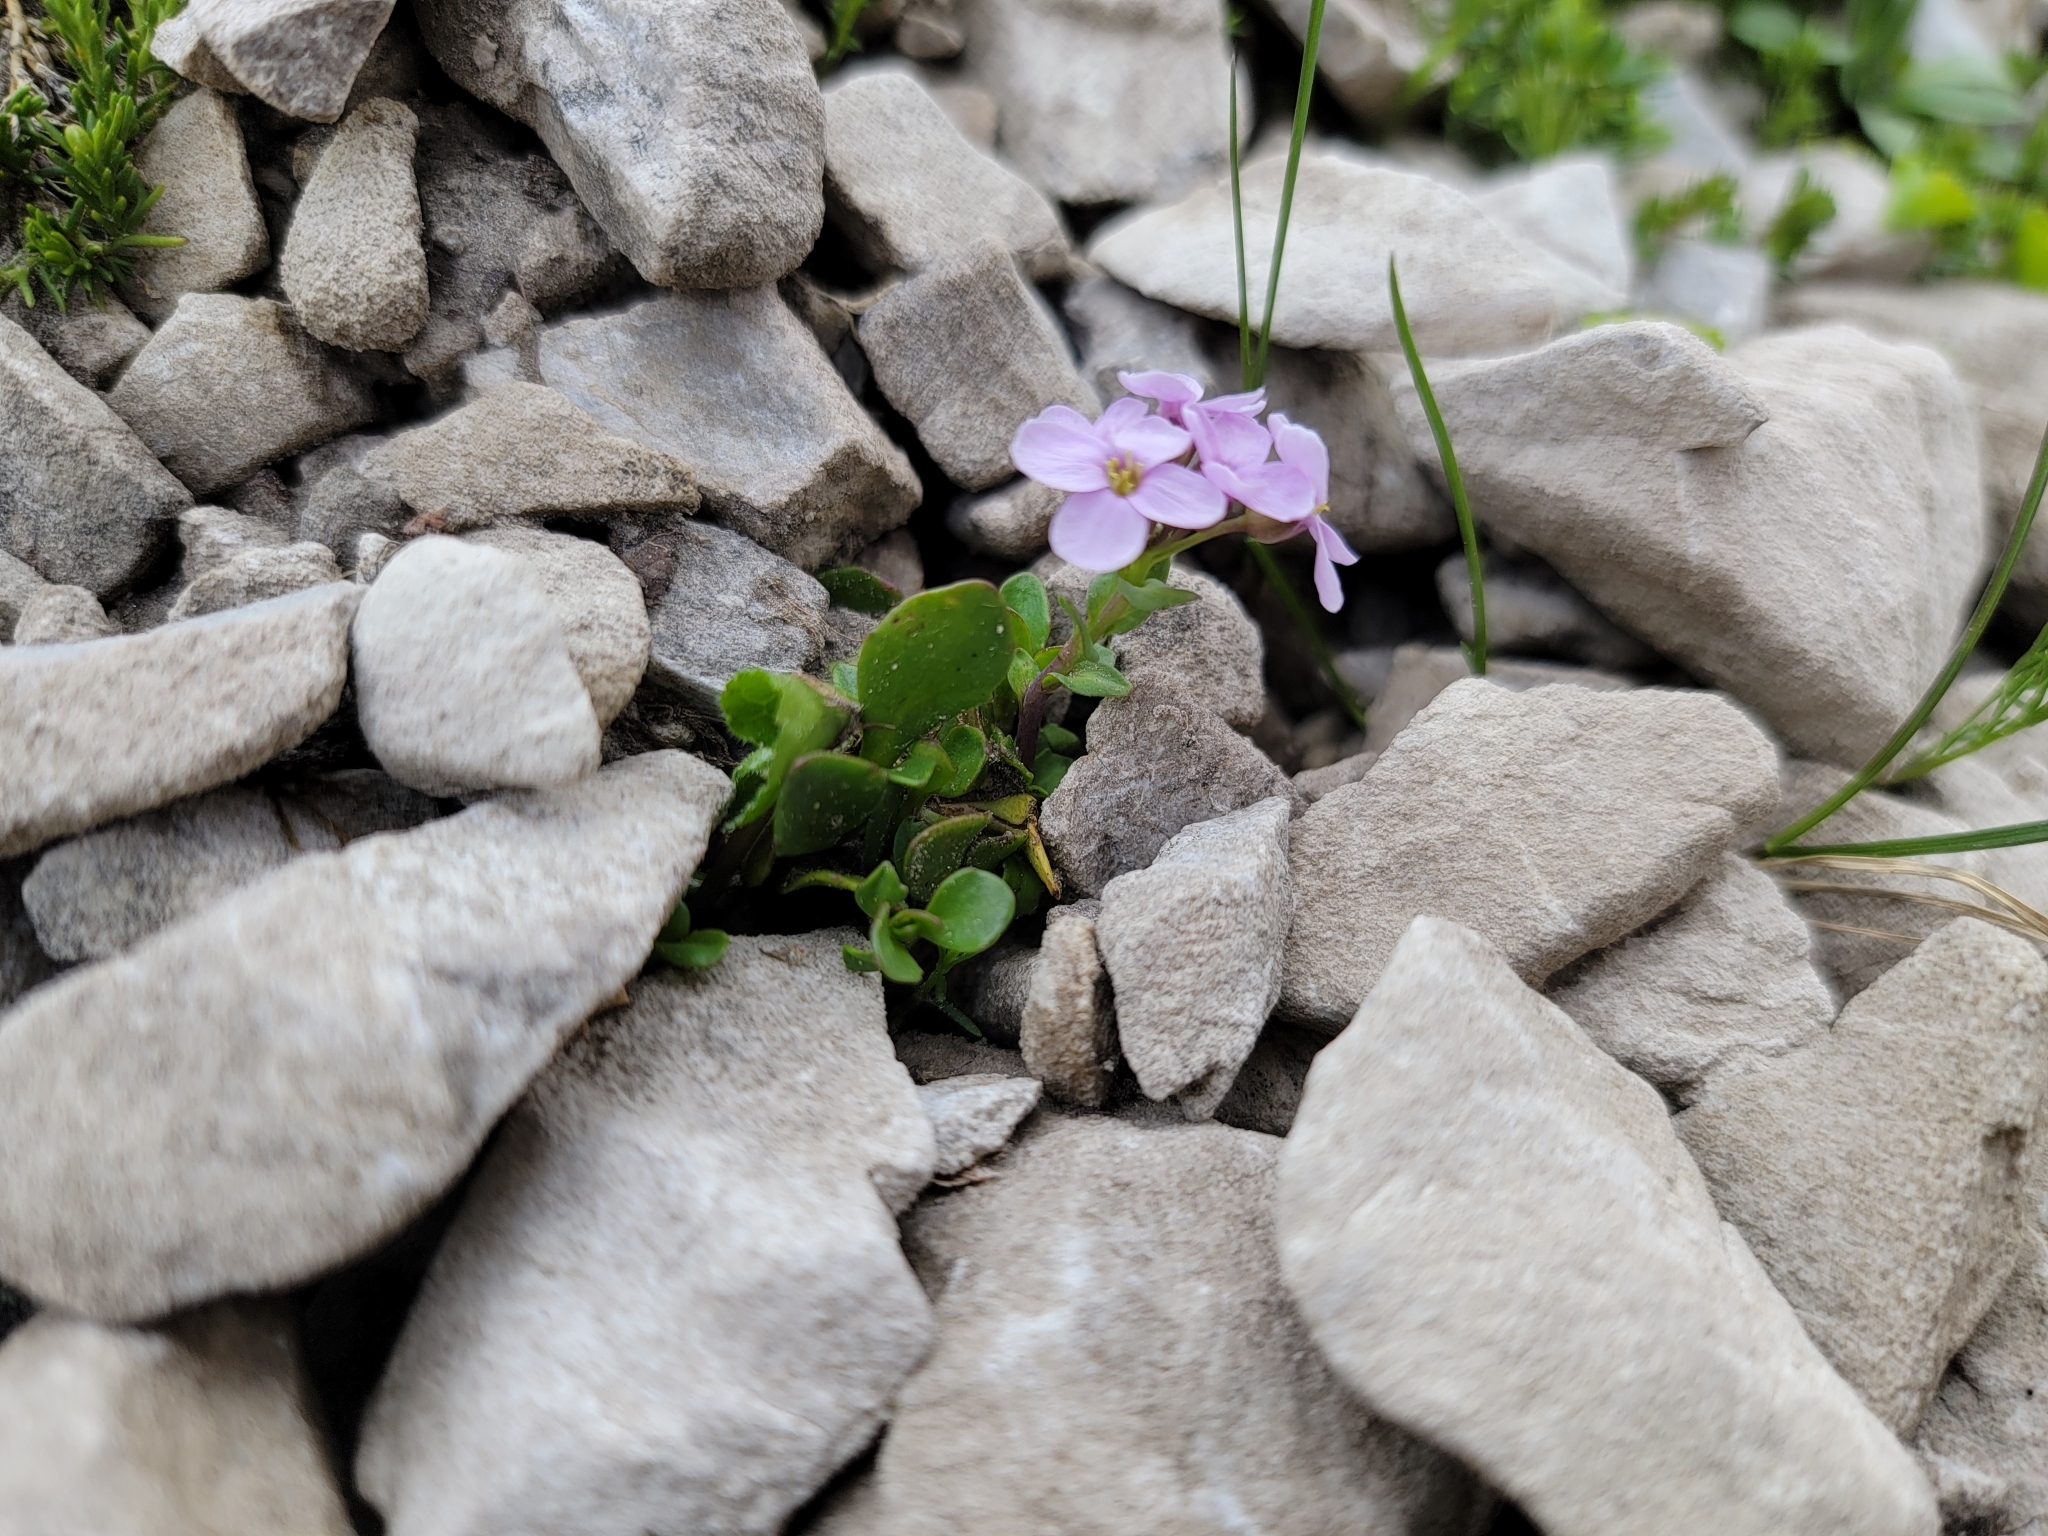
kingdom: Plantae
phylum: Tracheophyta
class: Magnoliopsida
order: Brassicales
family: Brassicaceae
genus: Noccaea
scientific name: Noccaea rotundifolia
